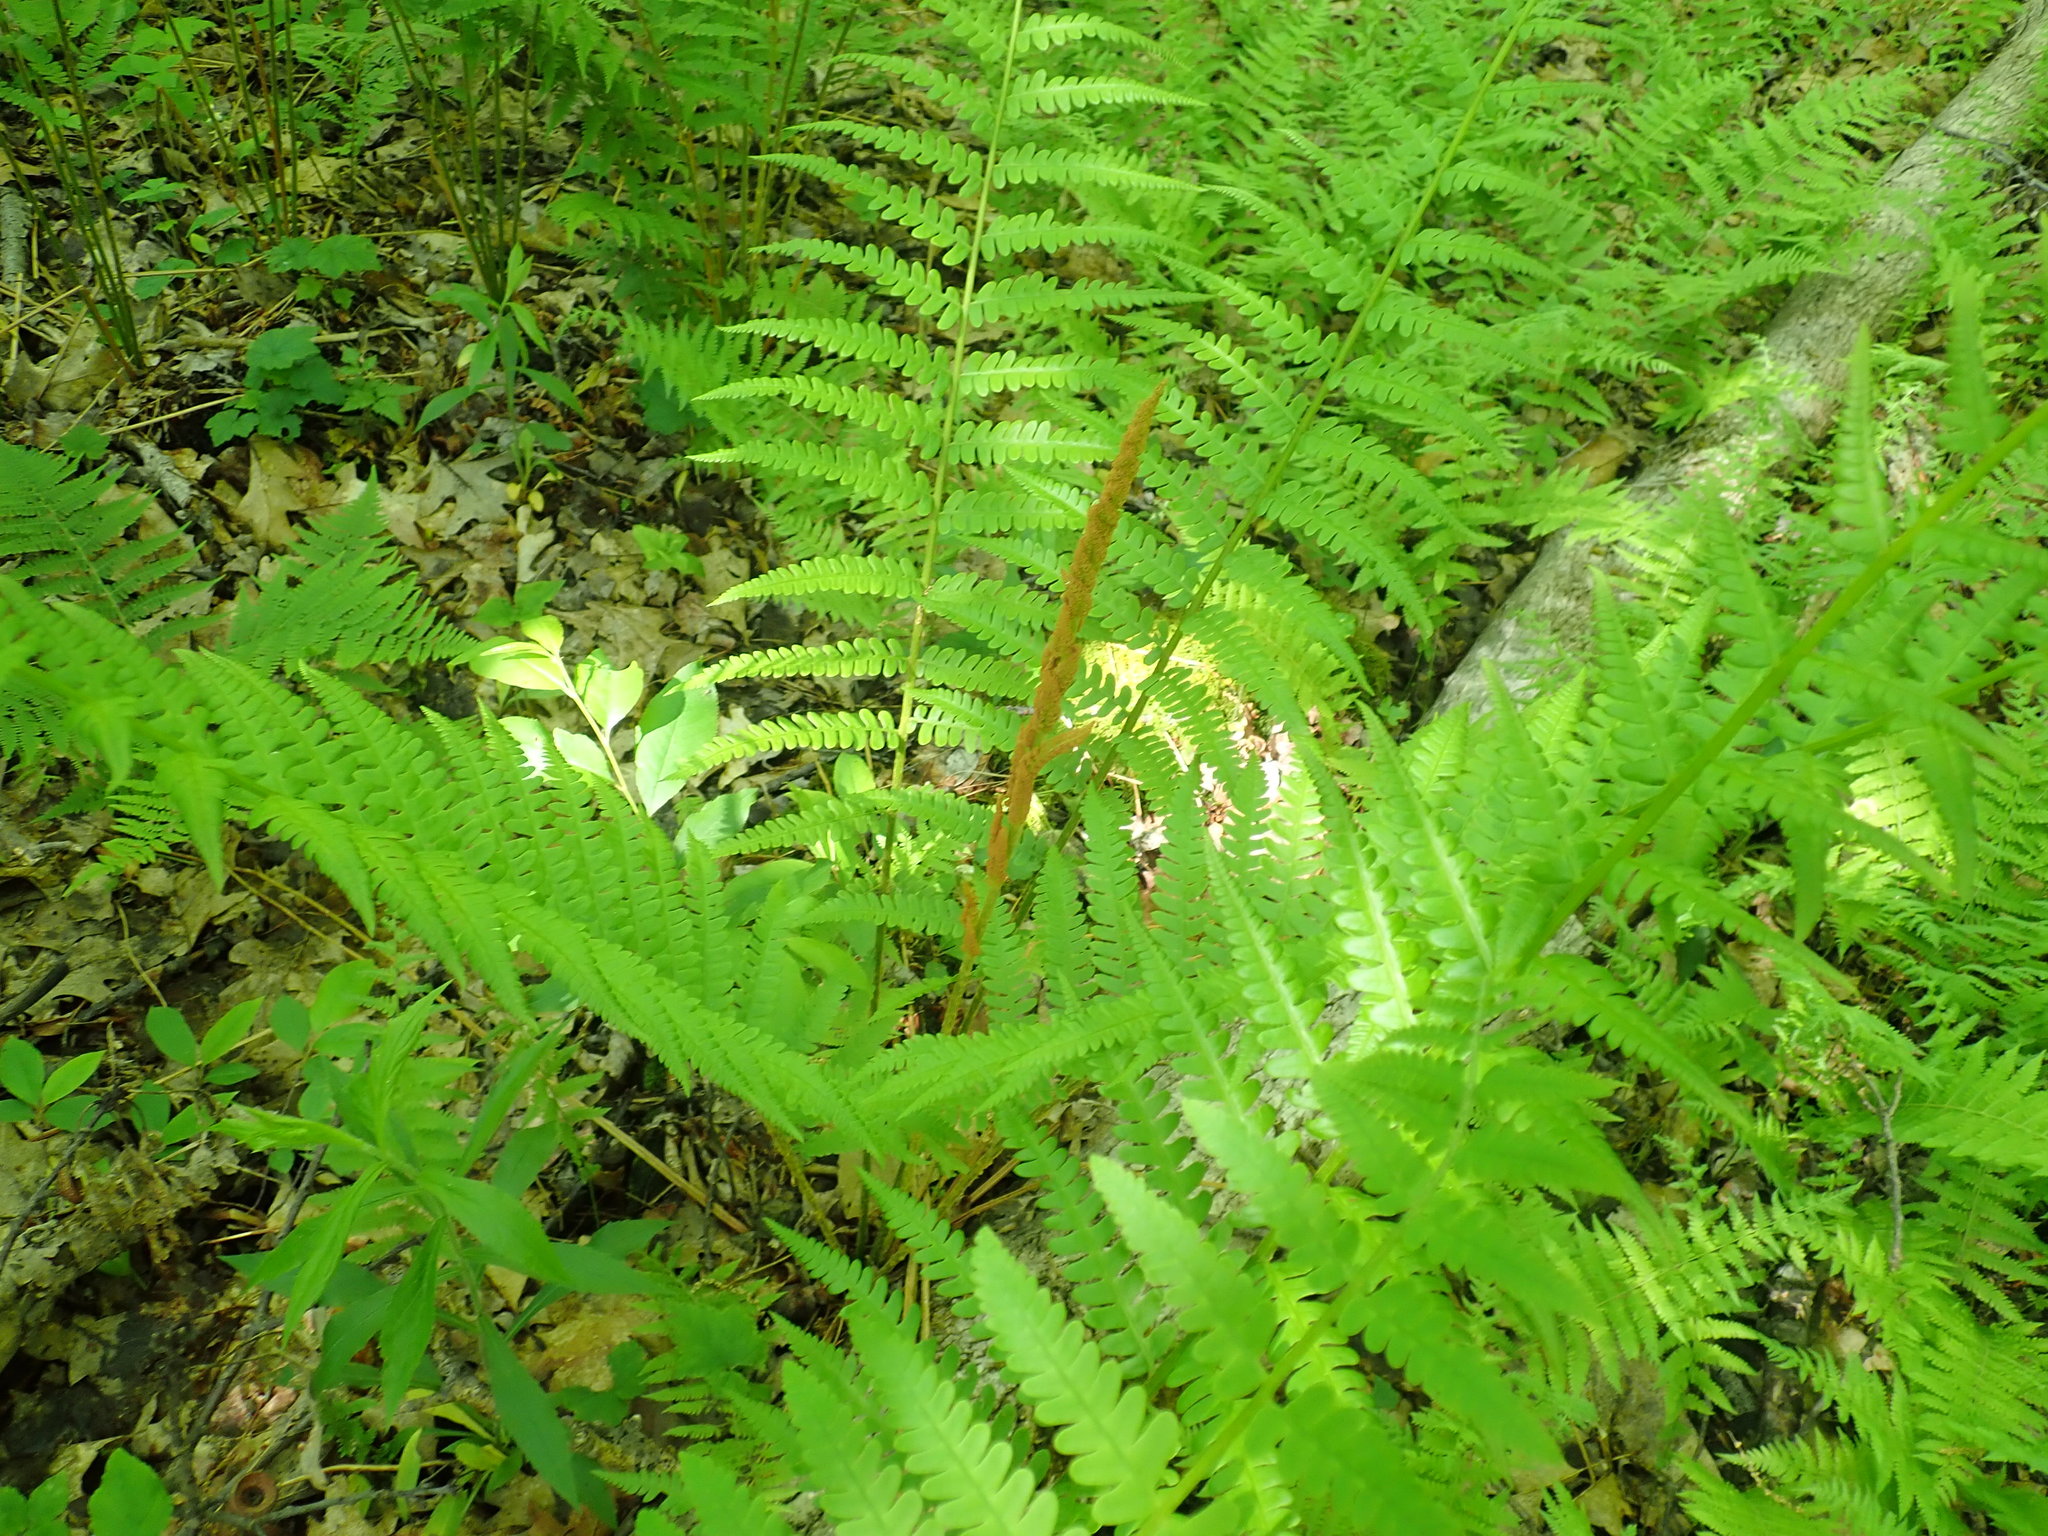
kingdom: Plantae
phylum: Tracheophyta
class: Polypodiopsida
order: Osmundales
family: Osmundaceae
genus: Osmundastrum
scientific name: Osmundastrum cinnamomeum
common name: Cinnamon fern
